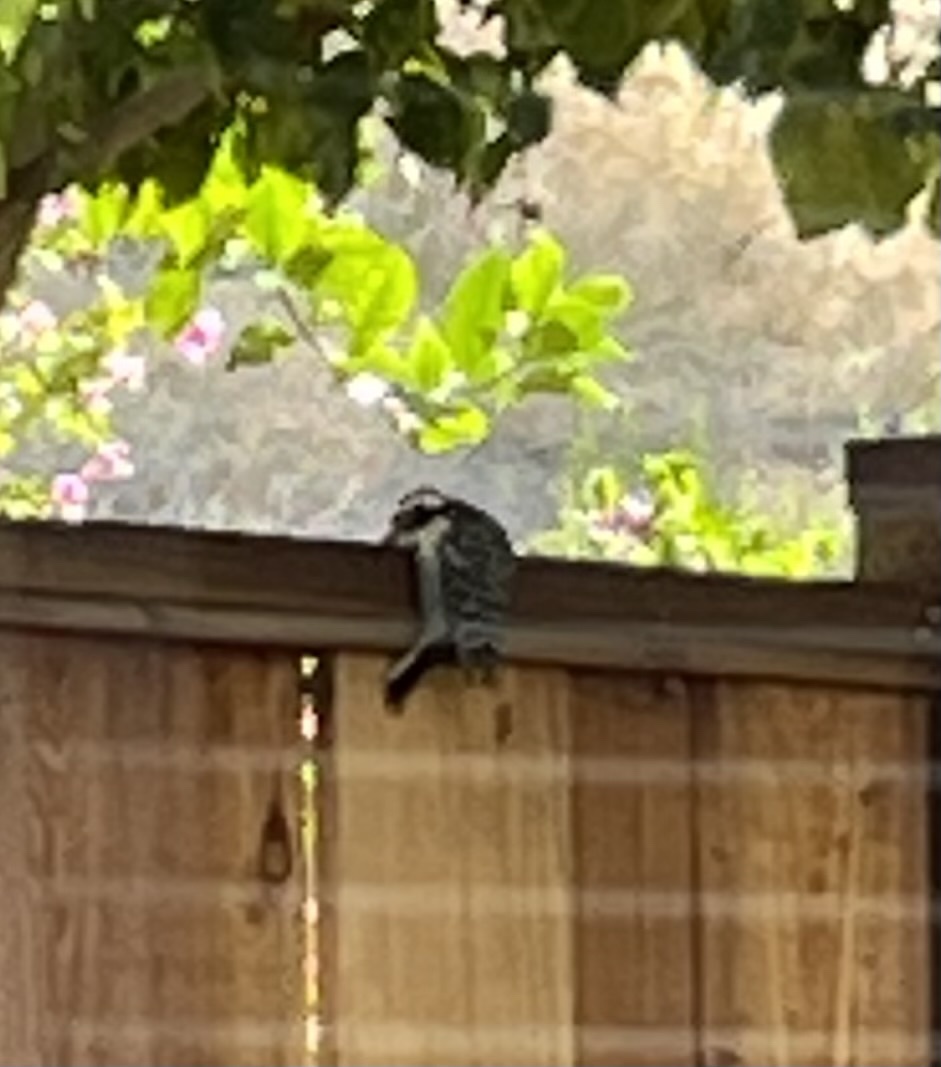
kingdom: Animalia
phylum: Chordata
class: Aves
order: Piciformes
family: Picidae
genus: Dryobates
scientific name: Dryobates nuttallii
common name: Nuttall's woodpecker
